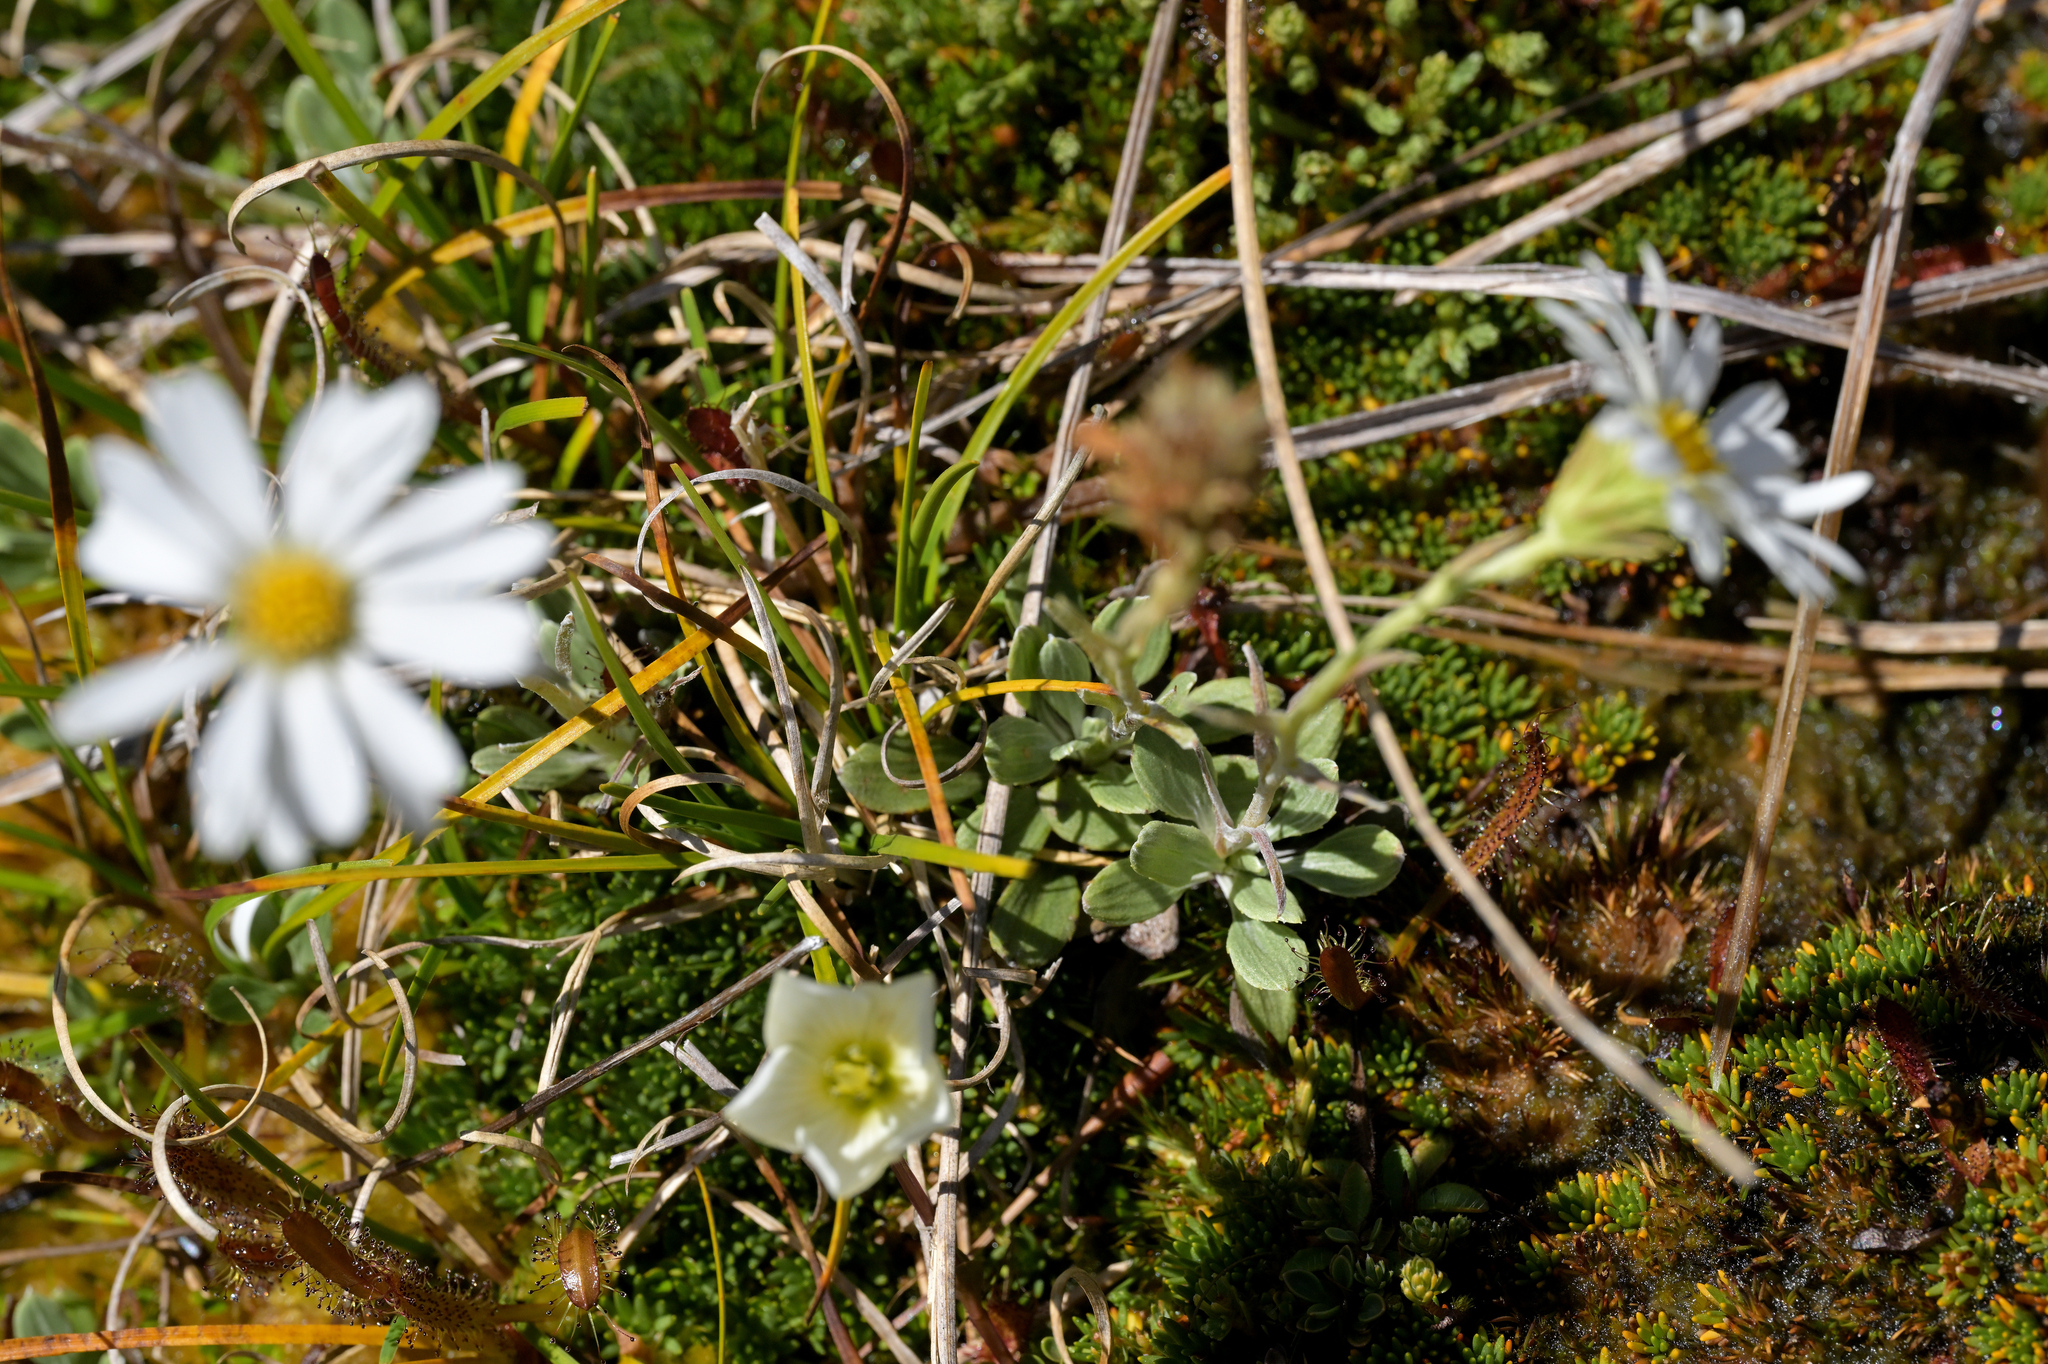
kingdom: Plantae
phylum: Tracheophyta
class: Magnoliopsida
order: Asterales
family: Asteraceae
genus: Celmisia
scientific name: Celmisia discolor
